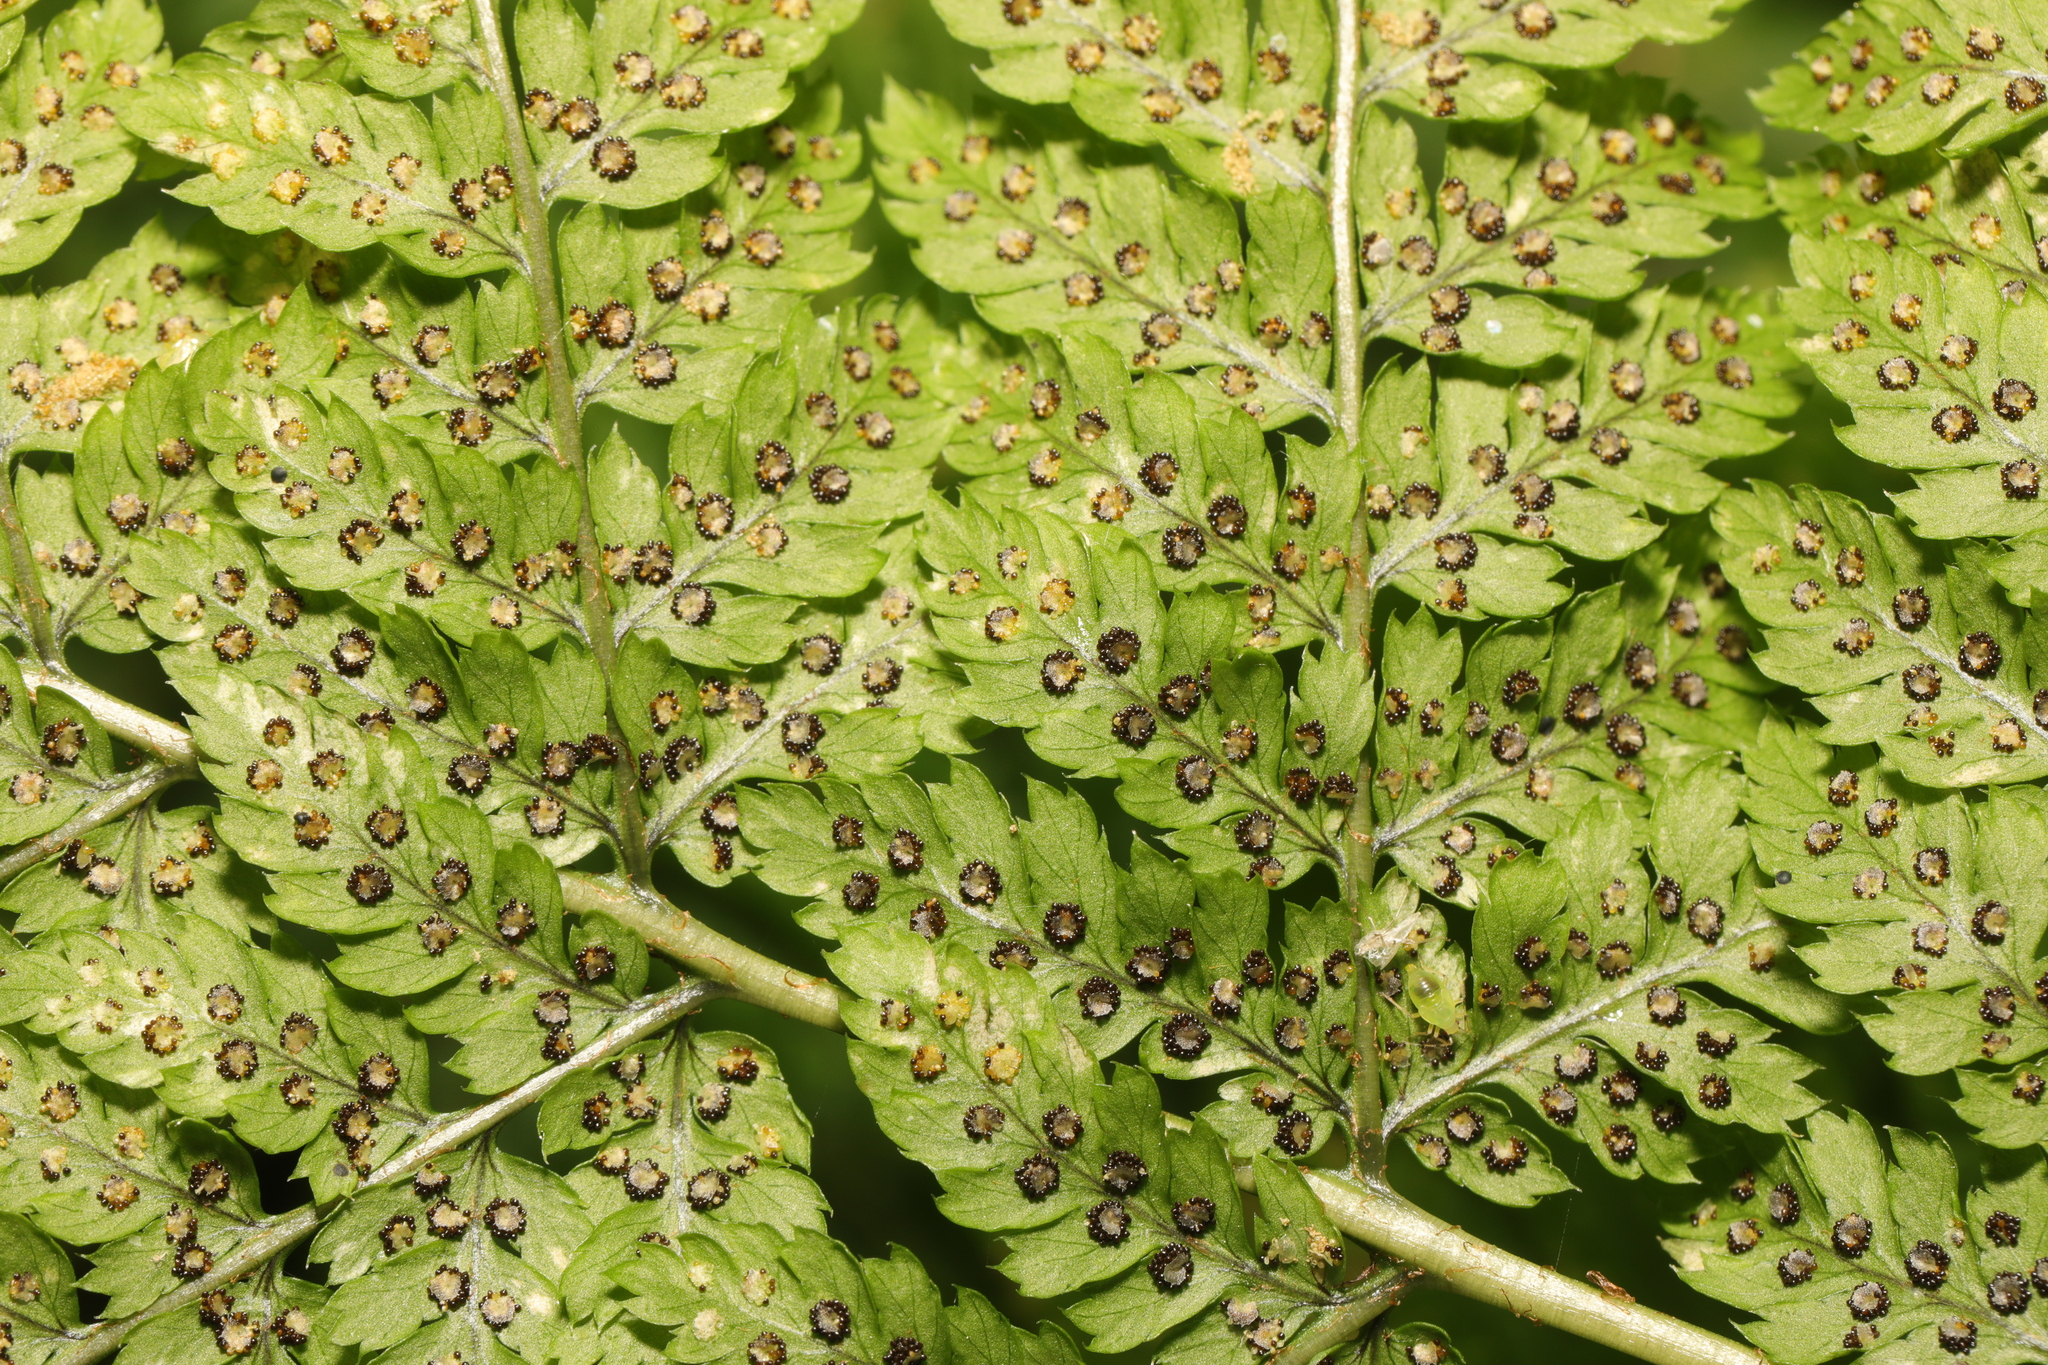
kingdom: Plantae
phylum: Tracheophyta
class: Polypodiopsida
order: Polypodiales
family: Dryopteridaceae
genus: Dryopteris
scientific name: Dryopteris dilatata
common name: Broad buckler-fern
